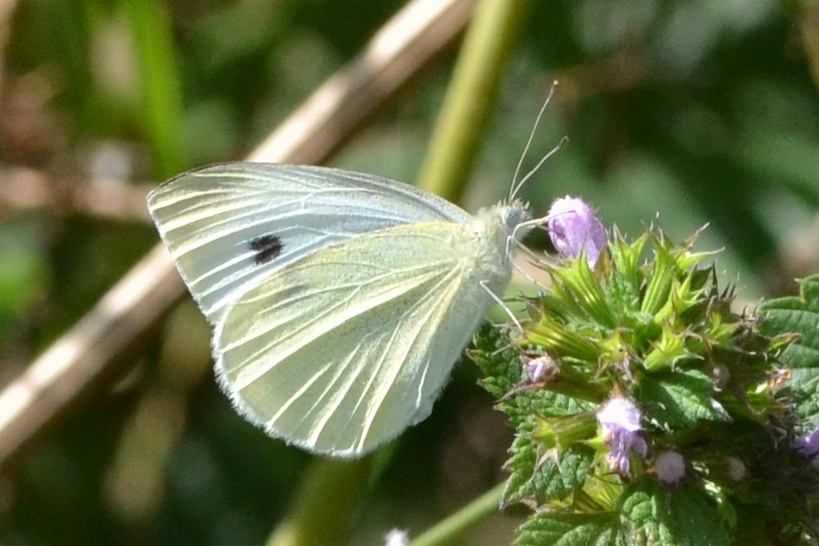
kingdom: Animalia
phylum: Arthropoda
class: Insecta
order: Lepidoptera
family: Pieridae
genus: Pieris
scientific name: Pieris rapae
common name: Small white
